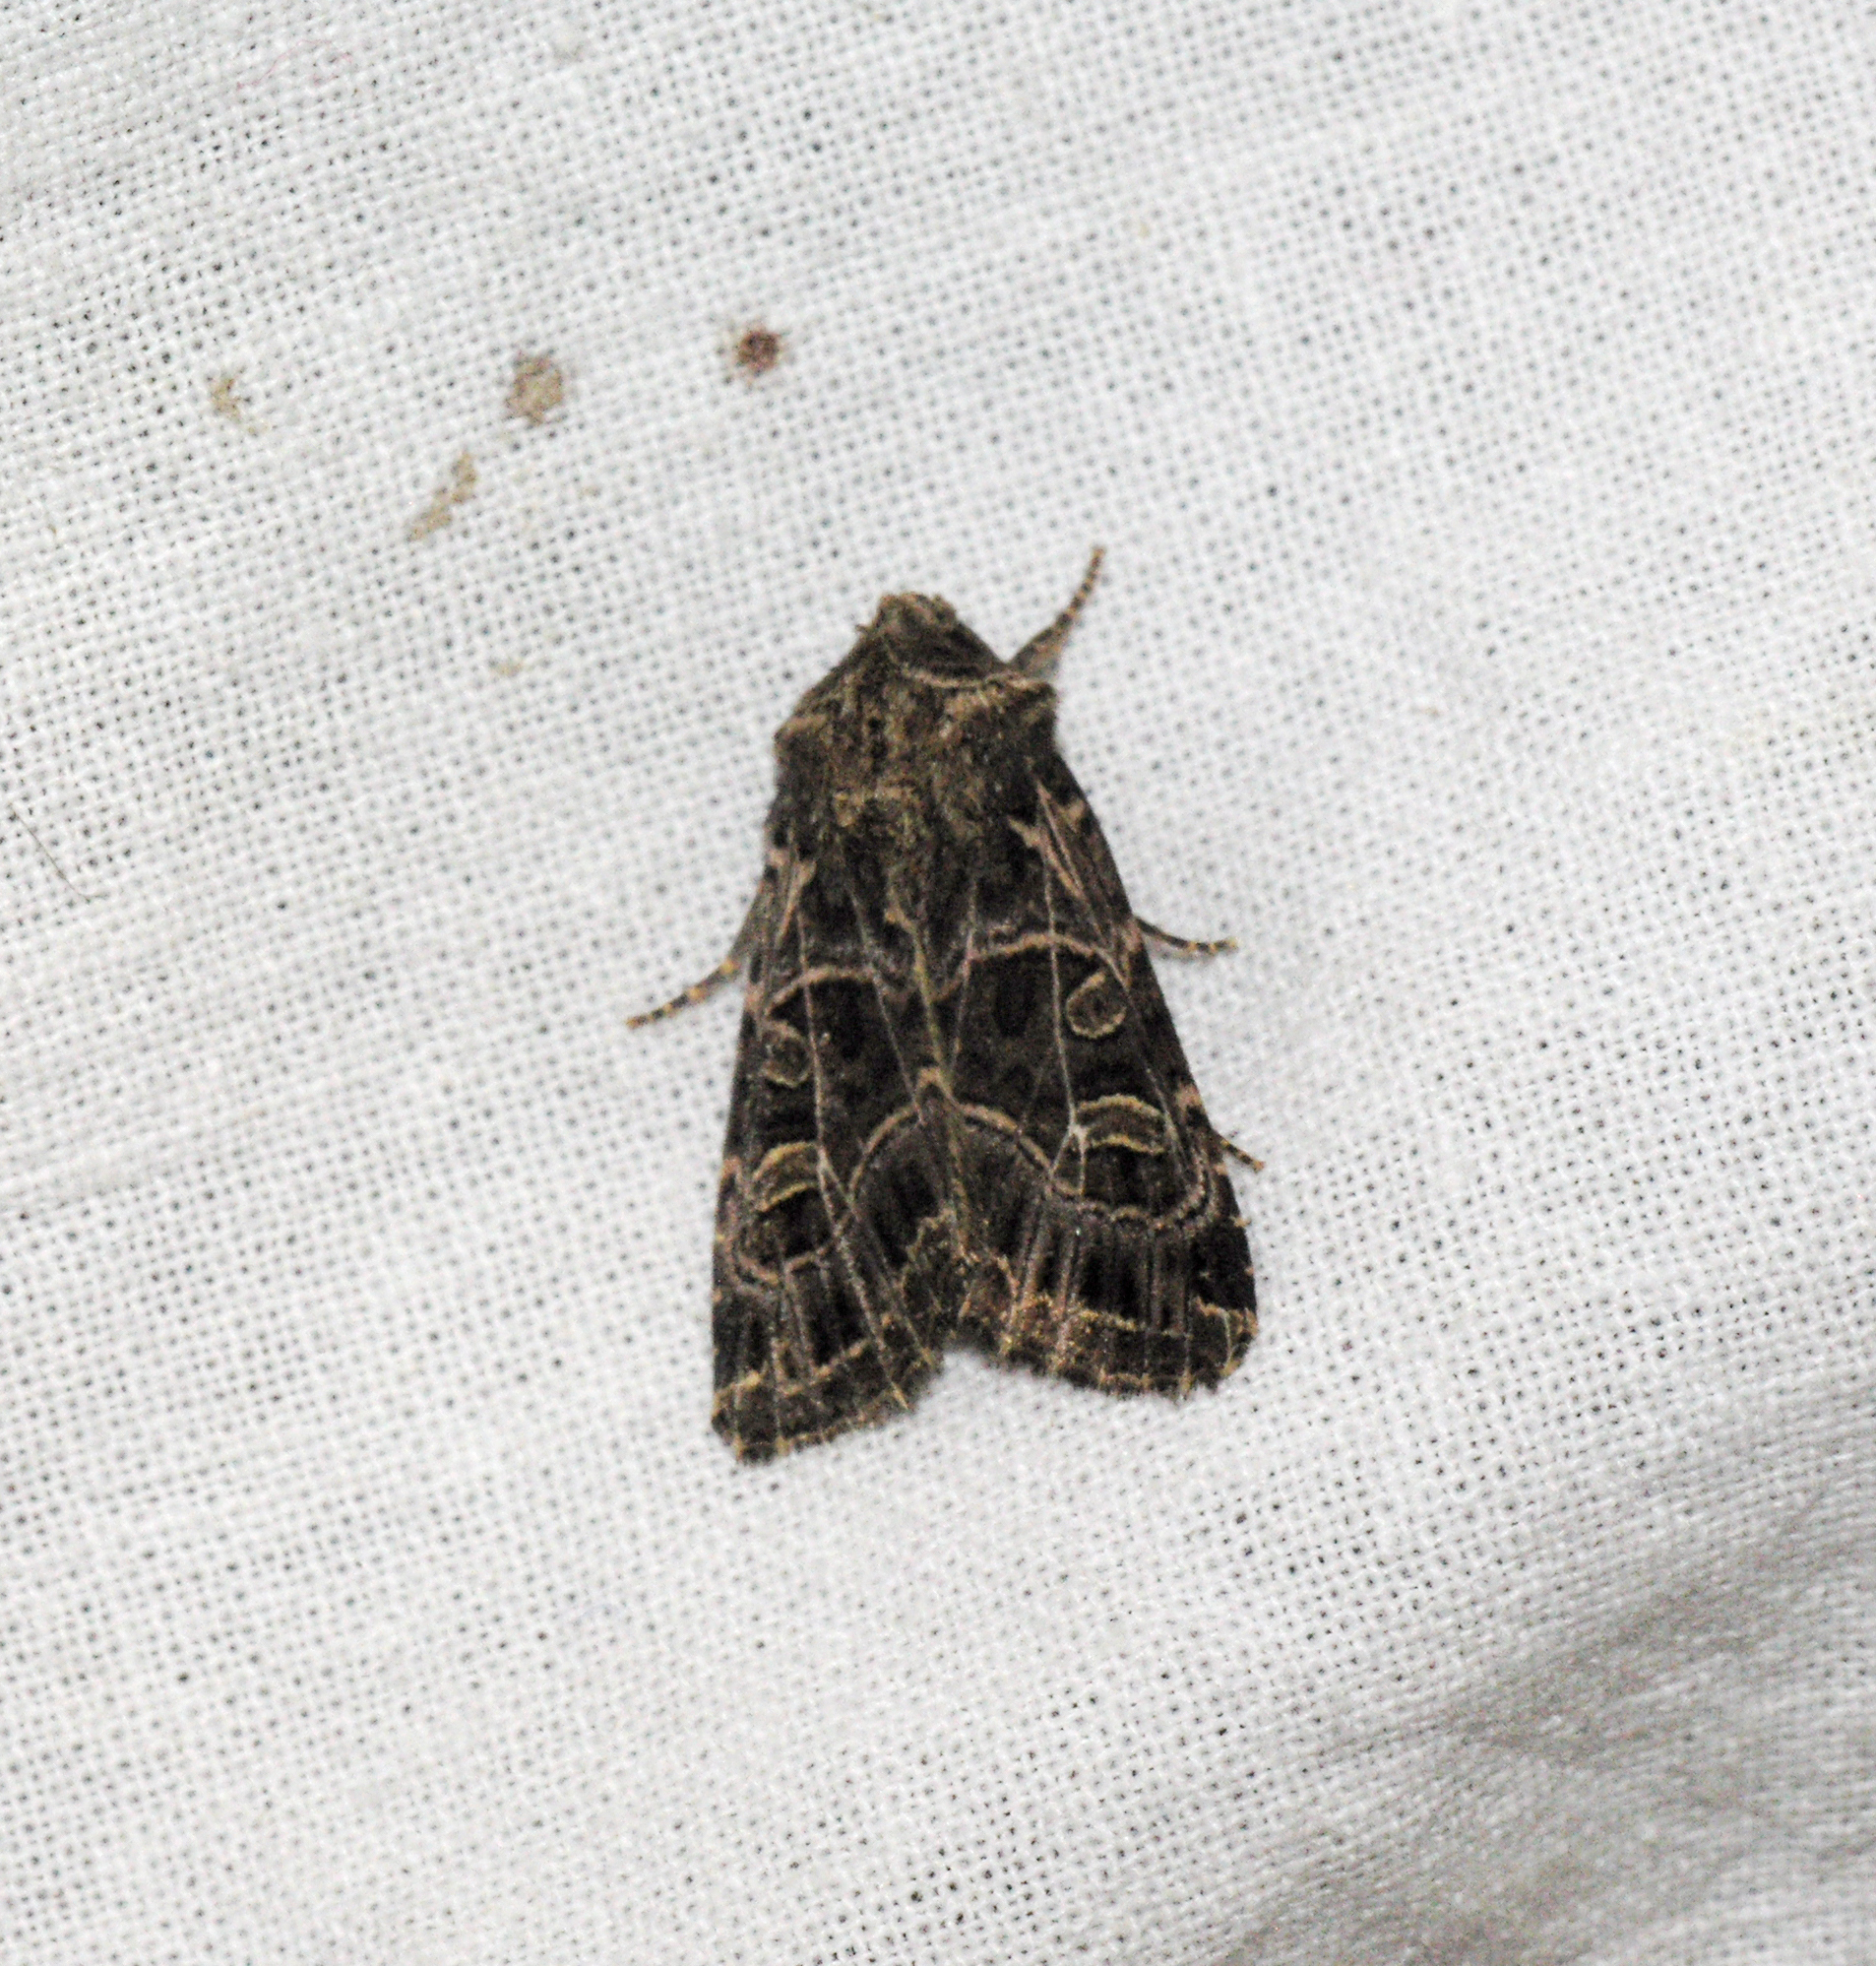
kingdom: Animalia
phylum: Arthropoda
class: Insecta
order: Lepidoptera
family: Noctuidae
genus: Sideridis
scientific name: Sideridis reticulata
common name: Bordered gothic
